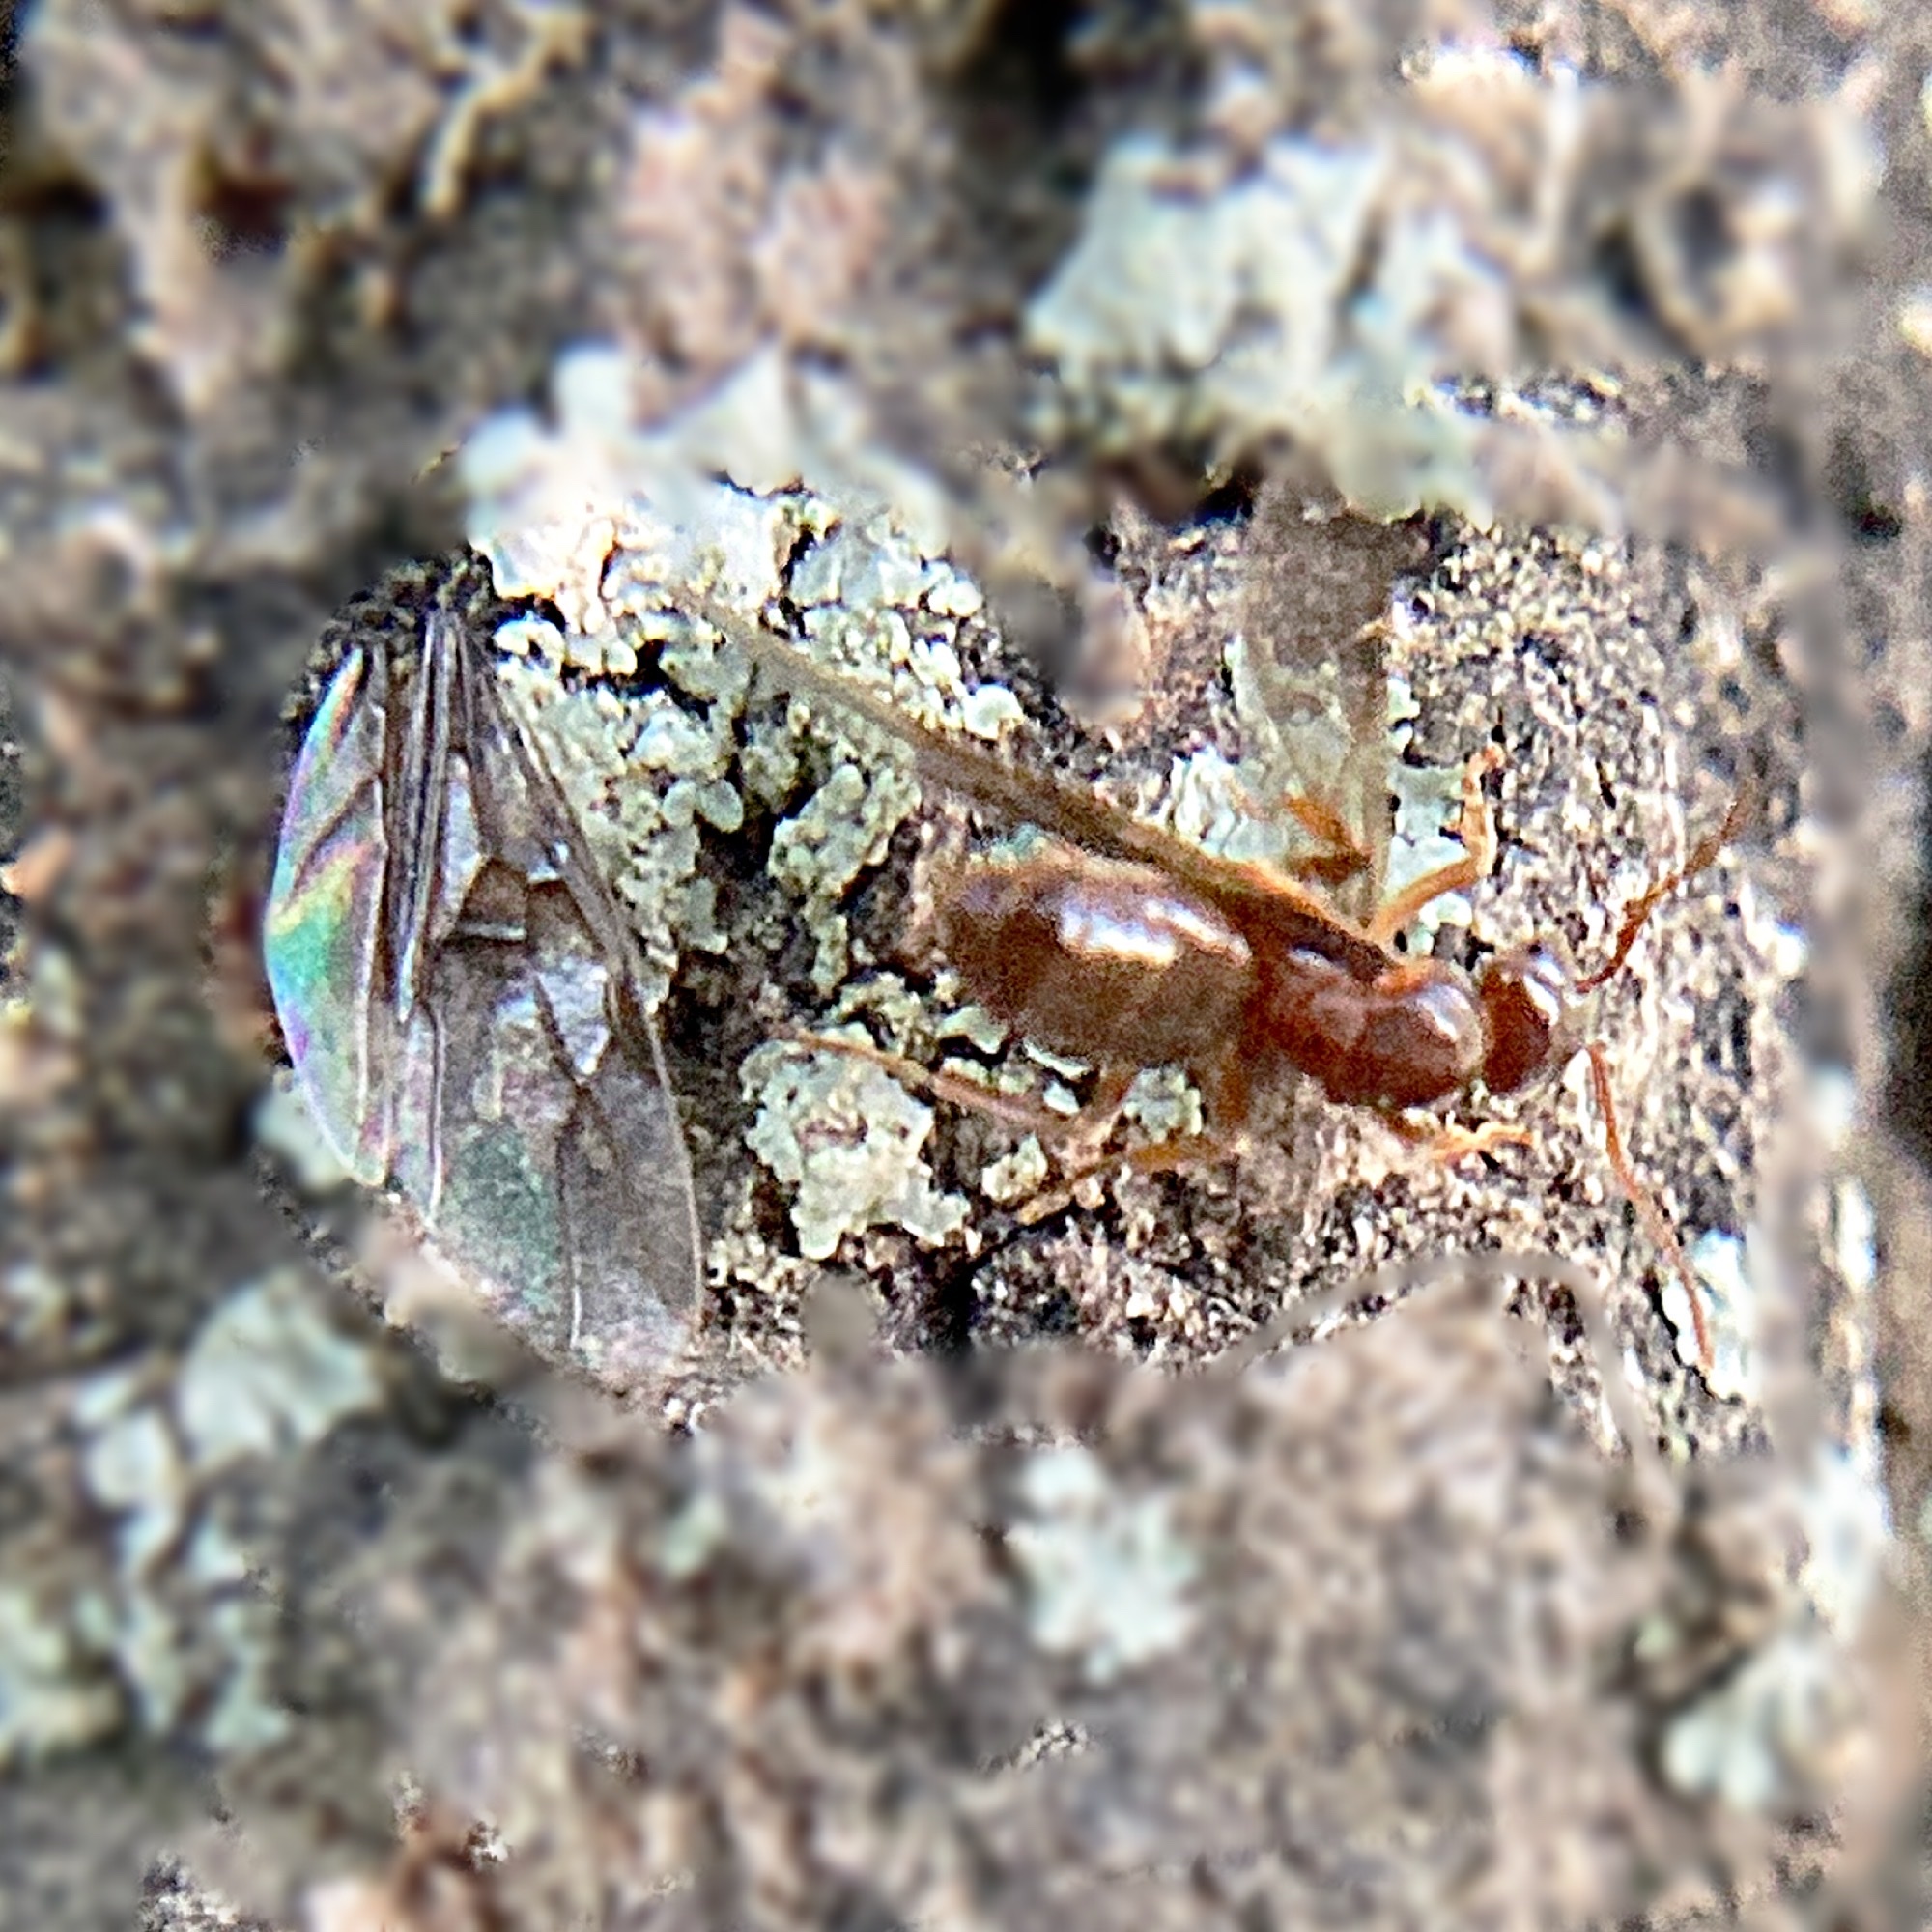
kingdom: Animalia
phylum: Arthropoda
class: Insecta
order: Hymenoptera
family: Formicidae
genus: Lasius
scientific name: Lasius aphidicola
